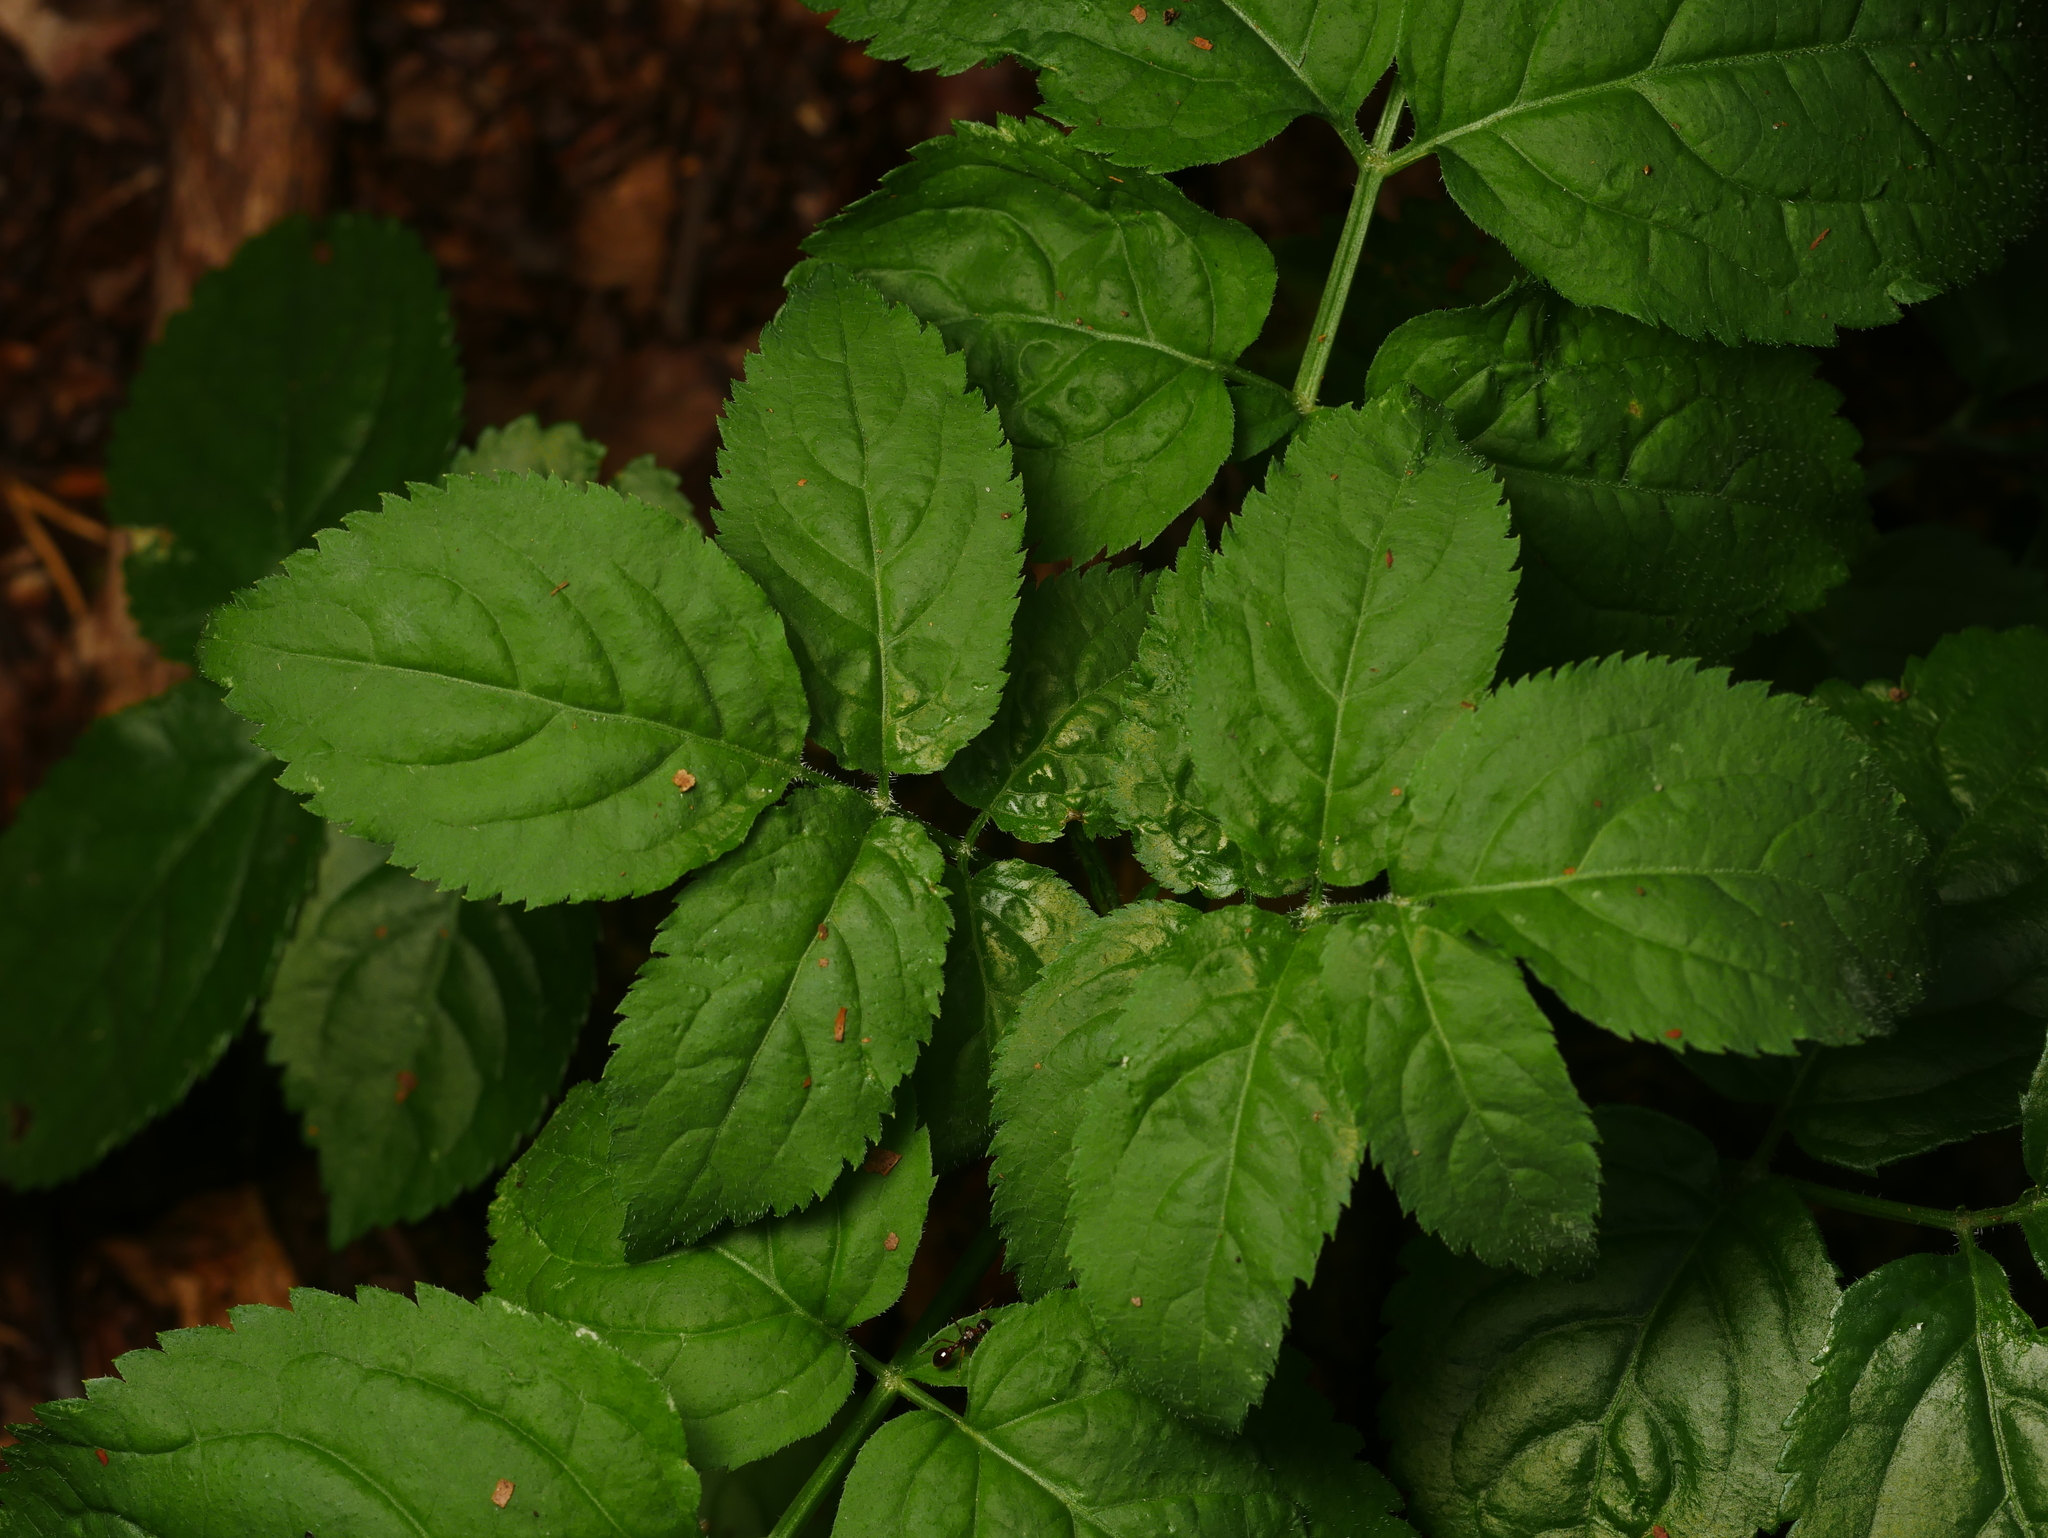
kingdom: Plantae
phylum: Tracheophyta
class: Magnoliopsida
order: Dipsacales
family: Viburnaceae
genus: Sambucus
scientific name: Sambucus nigra
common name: Elder
